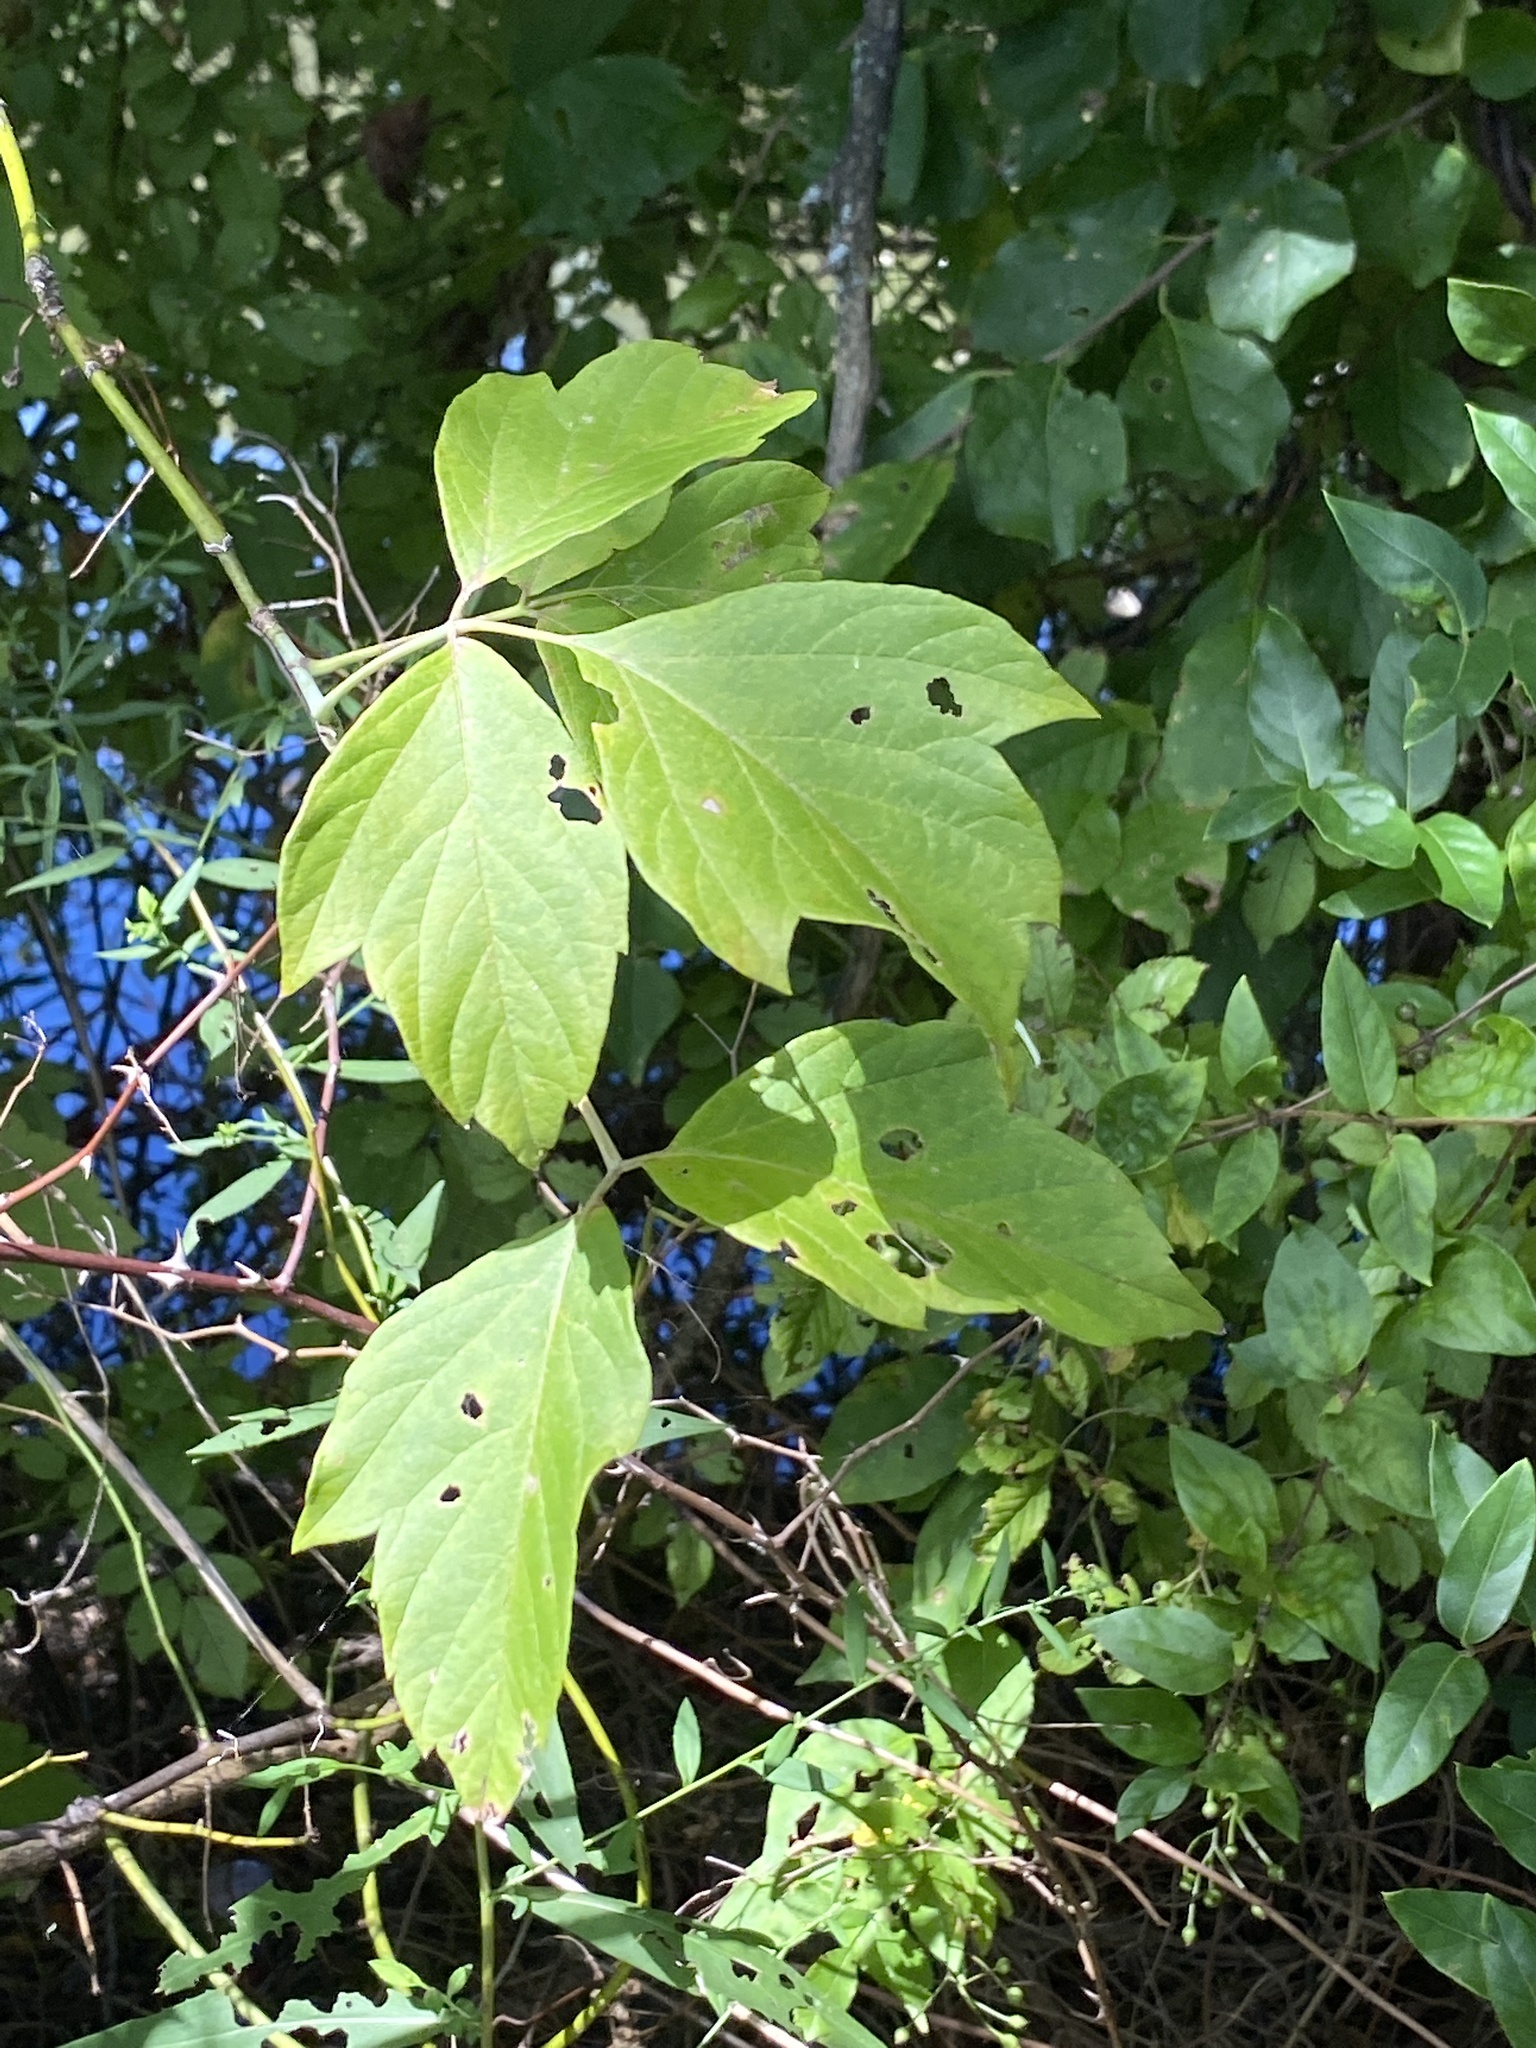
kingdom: Plantae
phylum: Tracheophyta
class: Magnoliopsida
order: Sapindales
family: Sapindaceae
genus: Acer
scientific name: Acer negundo
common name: Ashleaf maple
